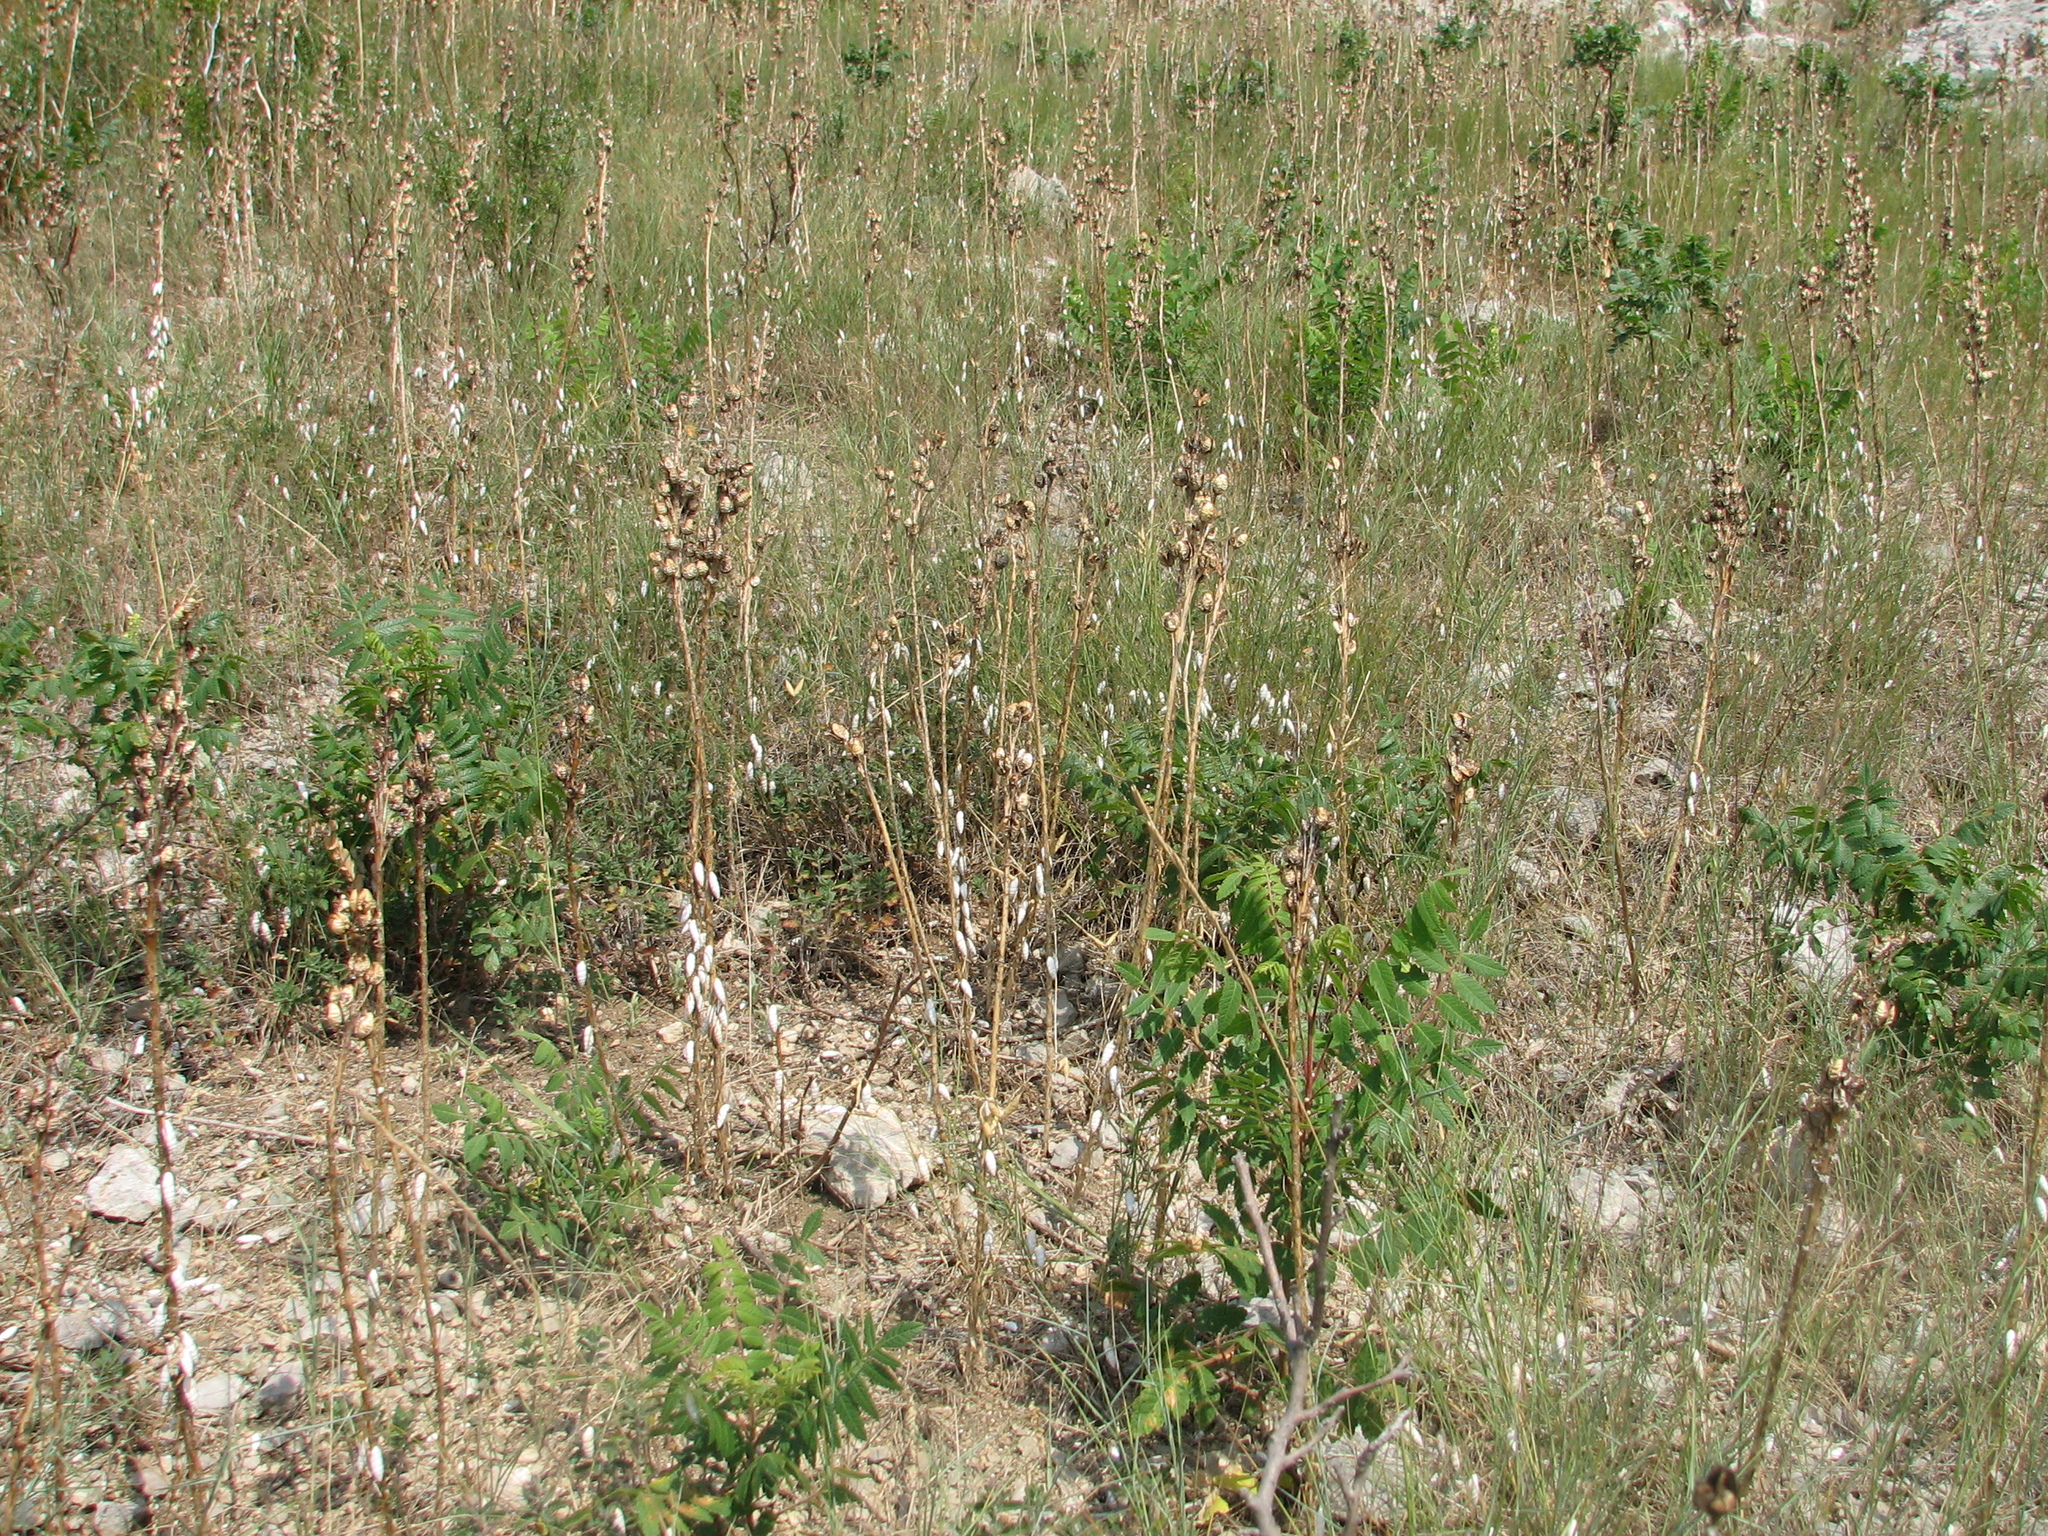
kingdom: Plantae
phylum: Tracheophyta
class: Liliopsida
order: Asparagales
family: Asphodelaceae
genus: Asphodeline
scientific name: Asphodeline lutea
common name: Yellow asphodel
